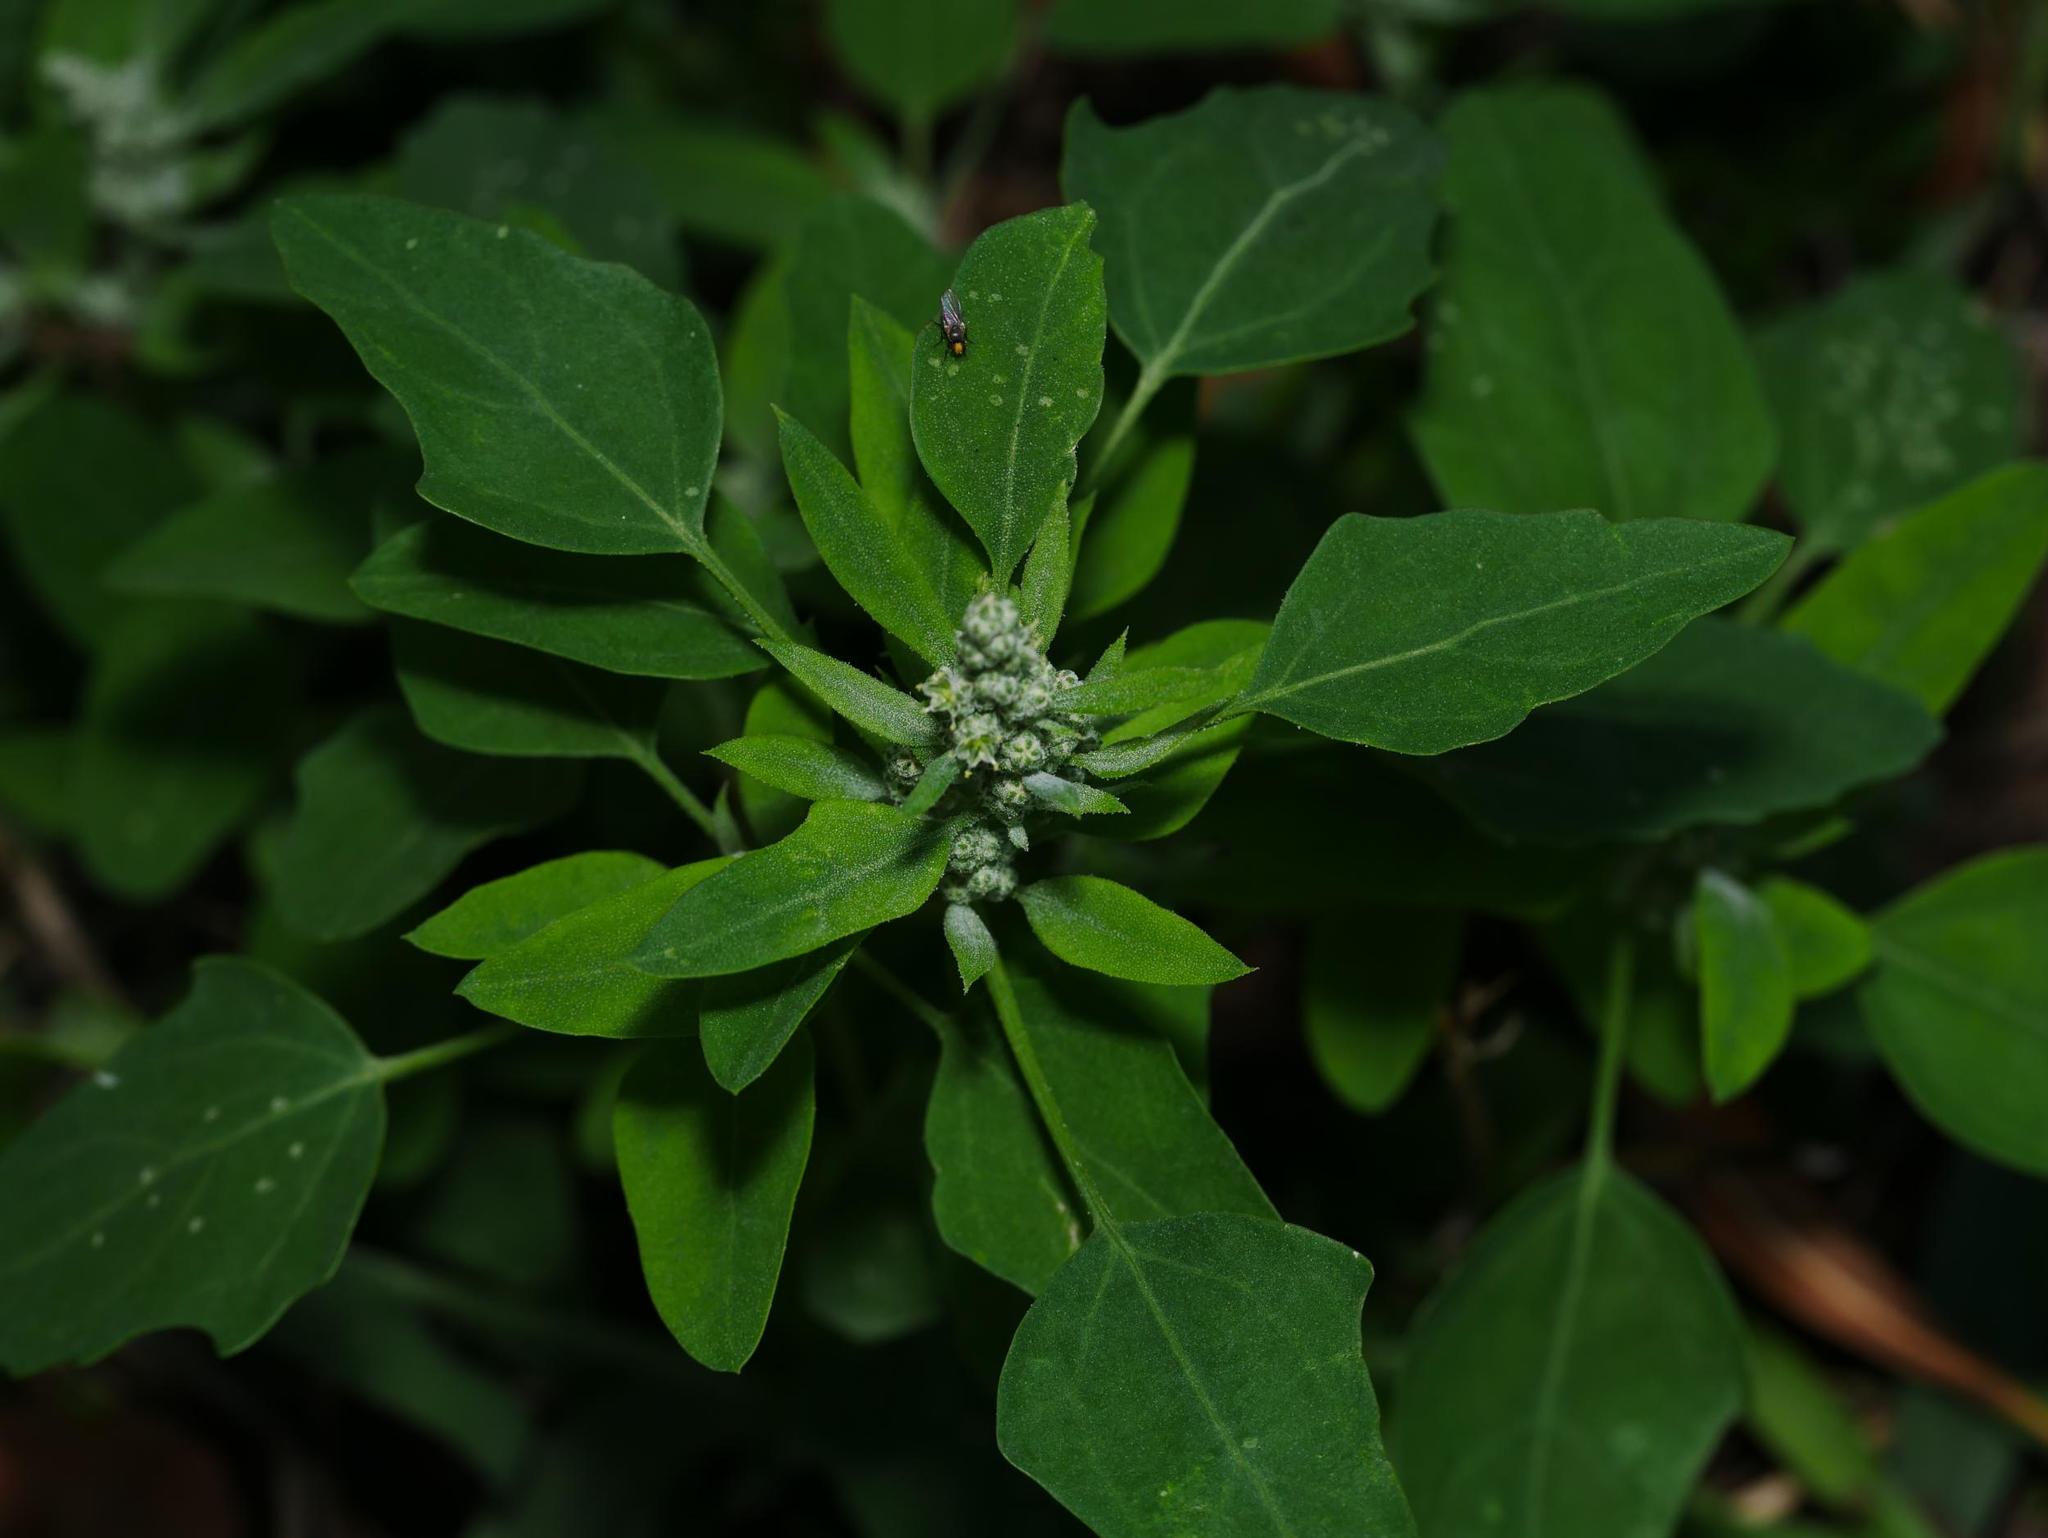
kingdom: Plantae
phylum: Tracheophyta
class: Magnoliopsida
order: Caryophyllales
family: Amaranthaceae
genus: Chenopodium
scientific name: Chenopodium album
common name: Fat-hen
